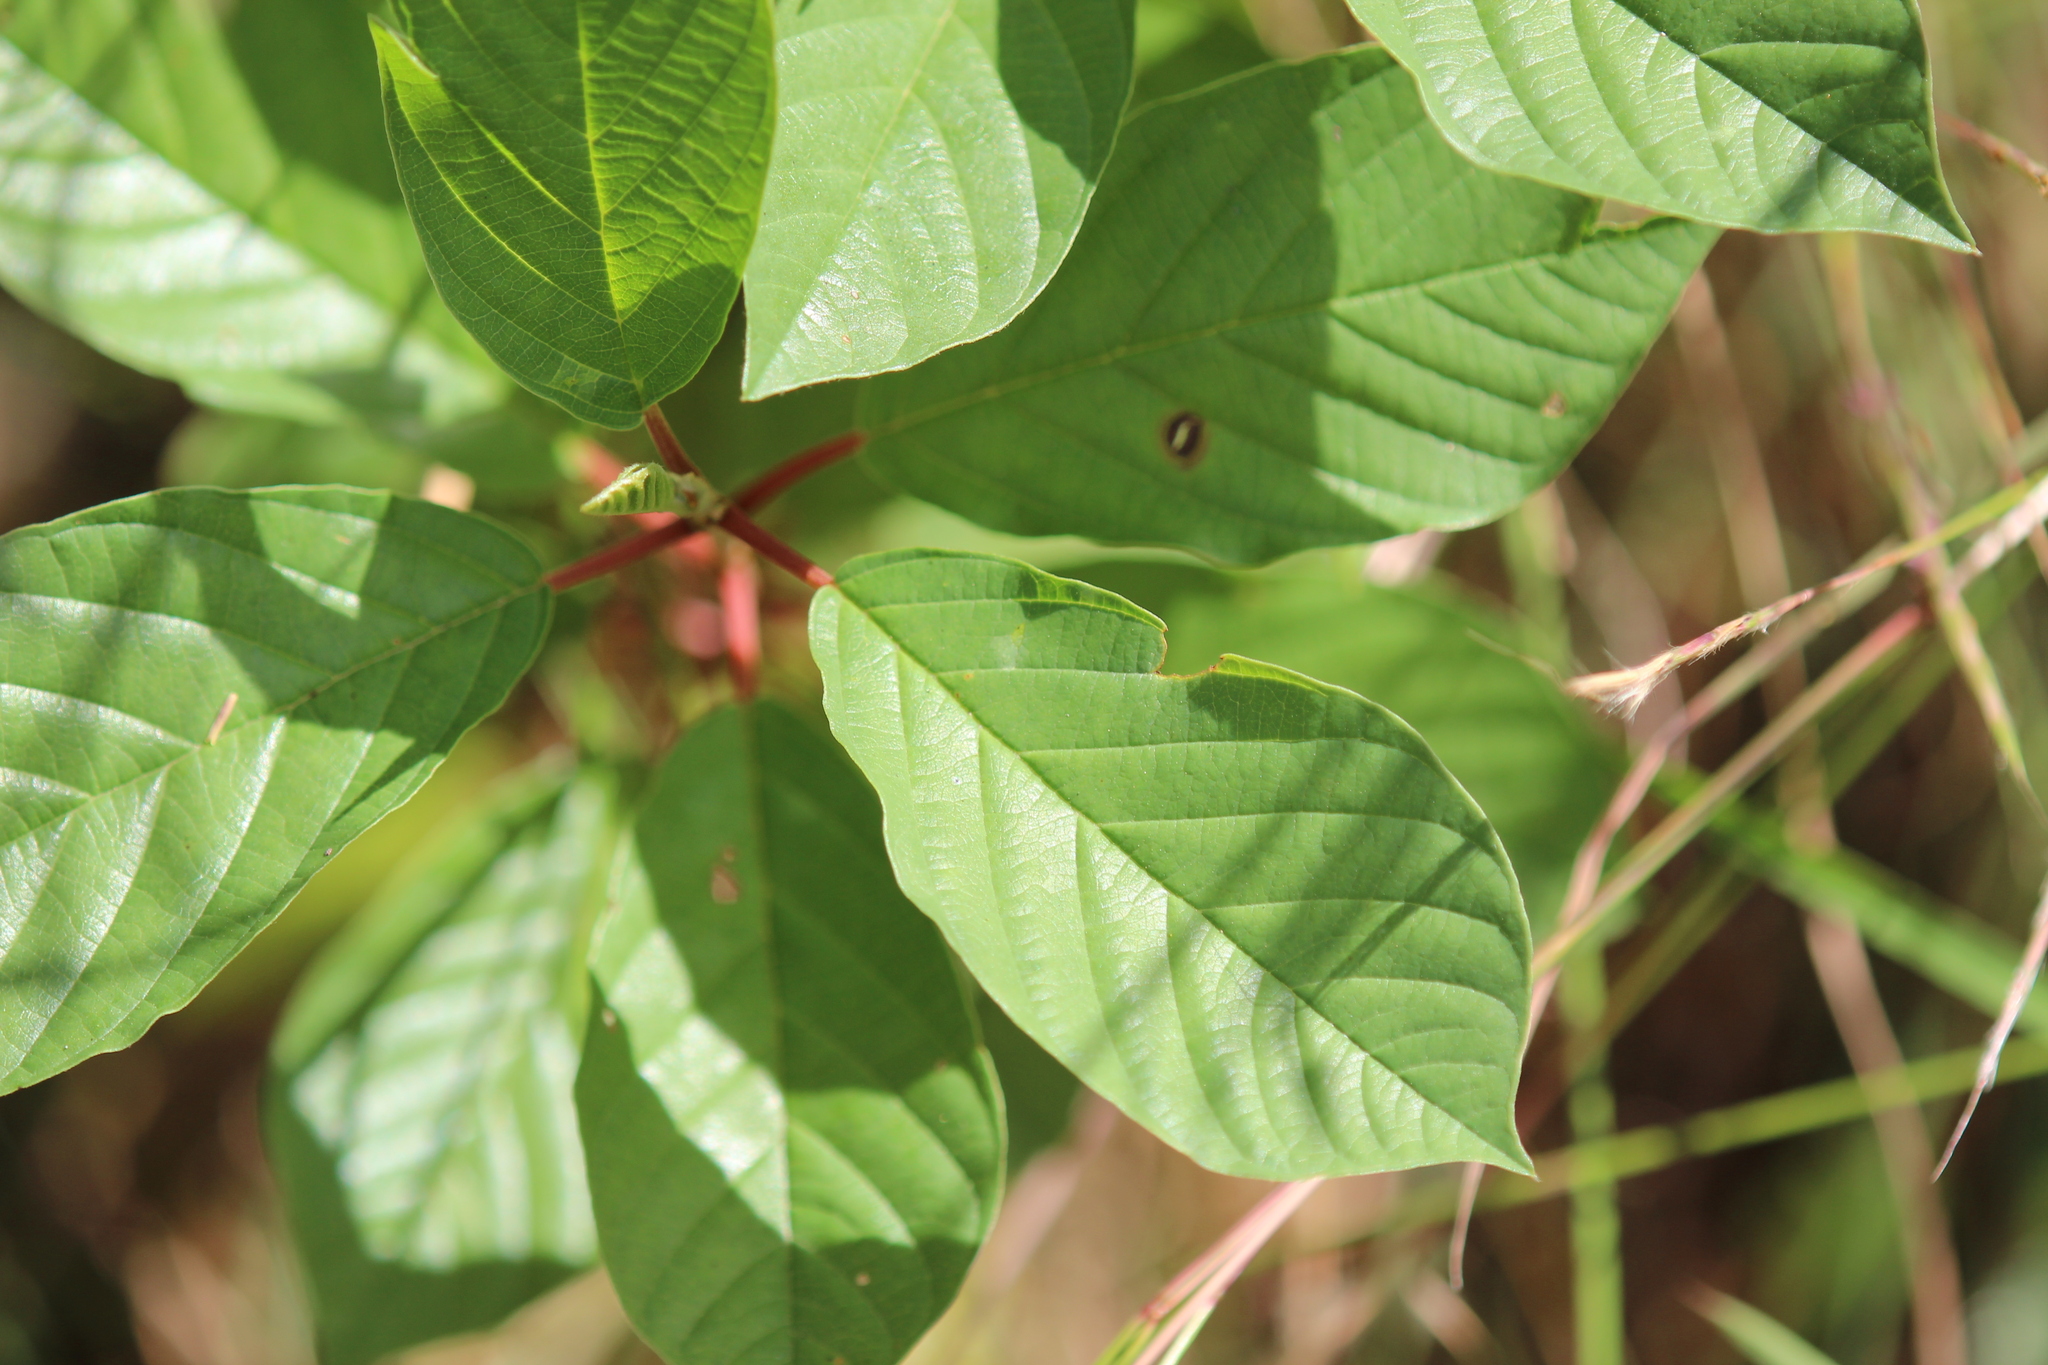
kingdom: Plantae
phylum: Tracheophyta
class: Magnoliopsida
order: Rosales
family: Rhamnaceae
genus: Frangula
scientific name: Frangula alnus
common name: Alder buckthorn
